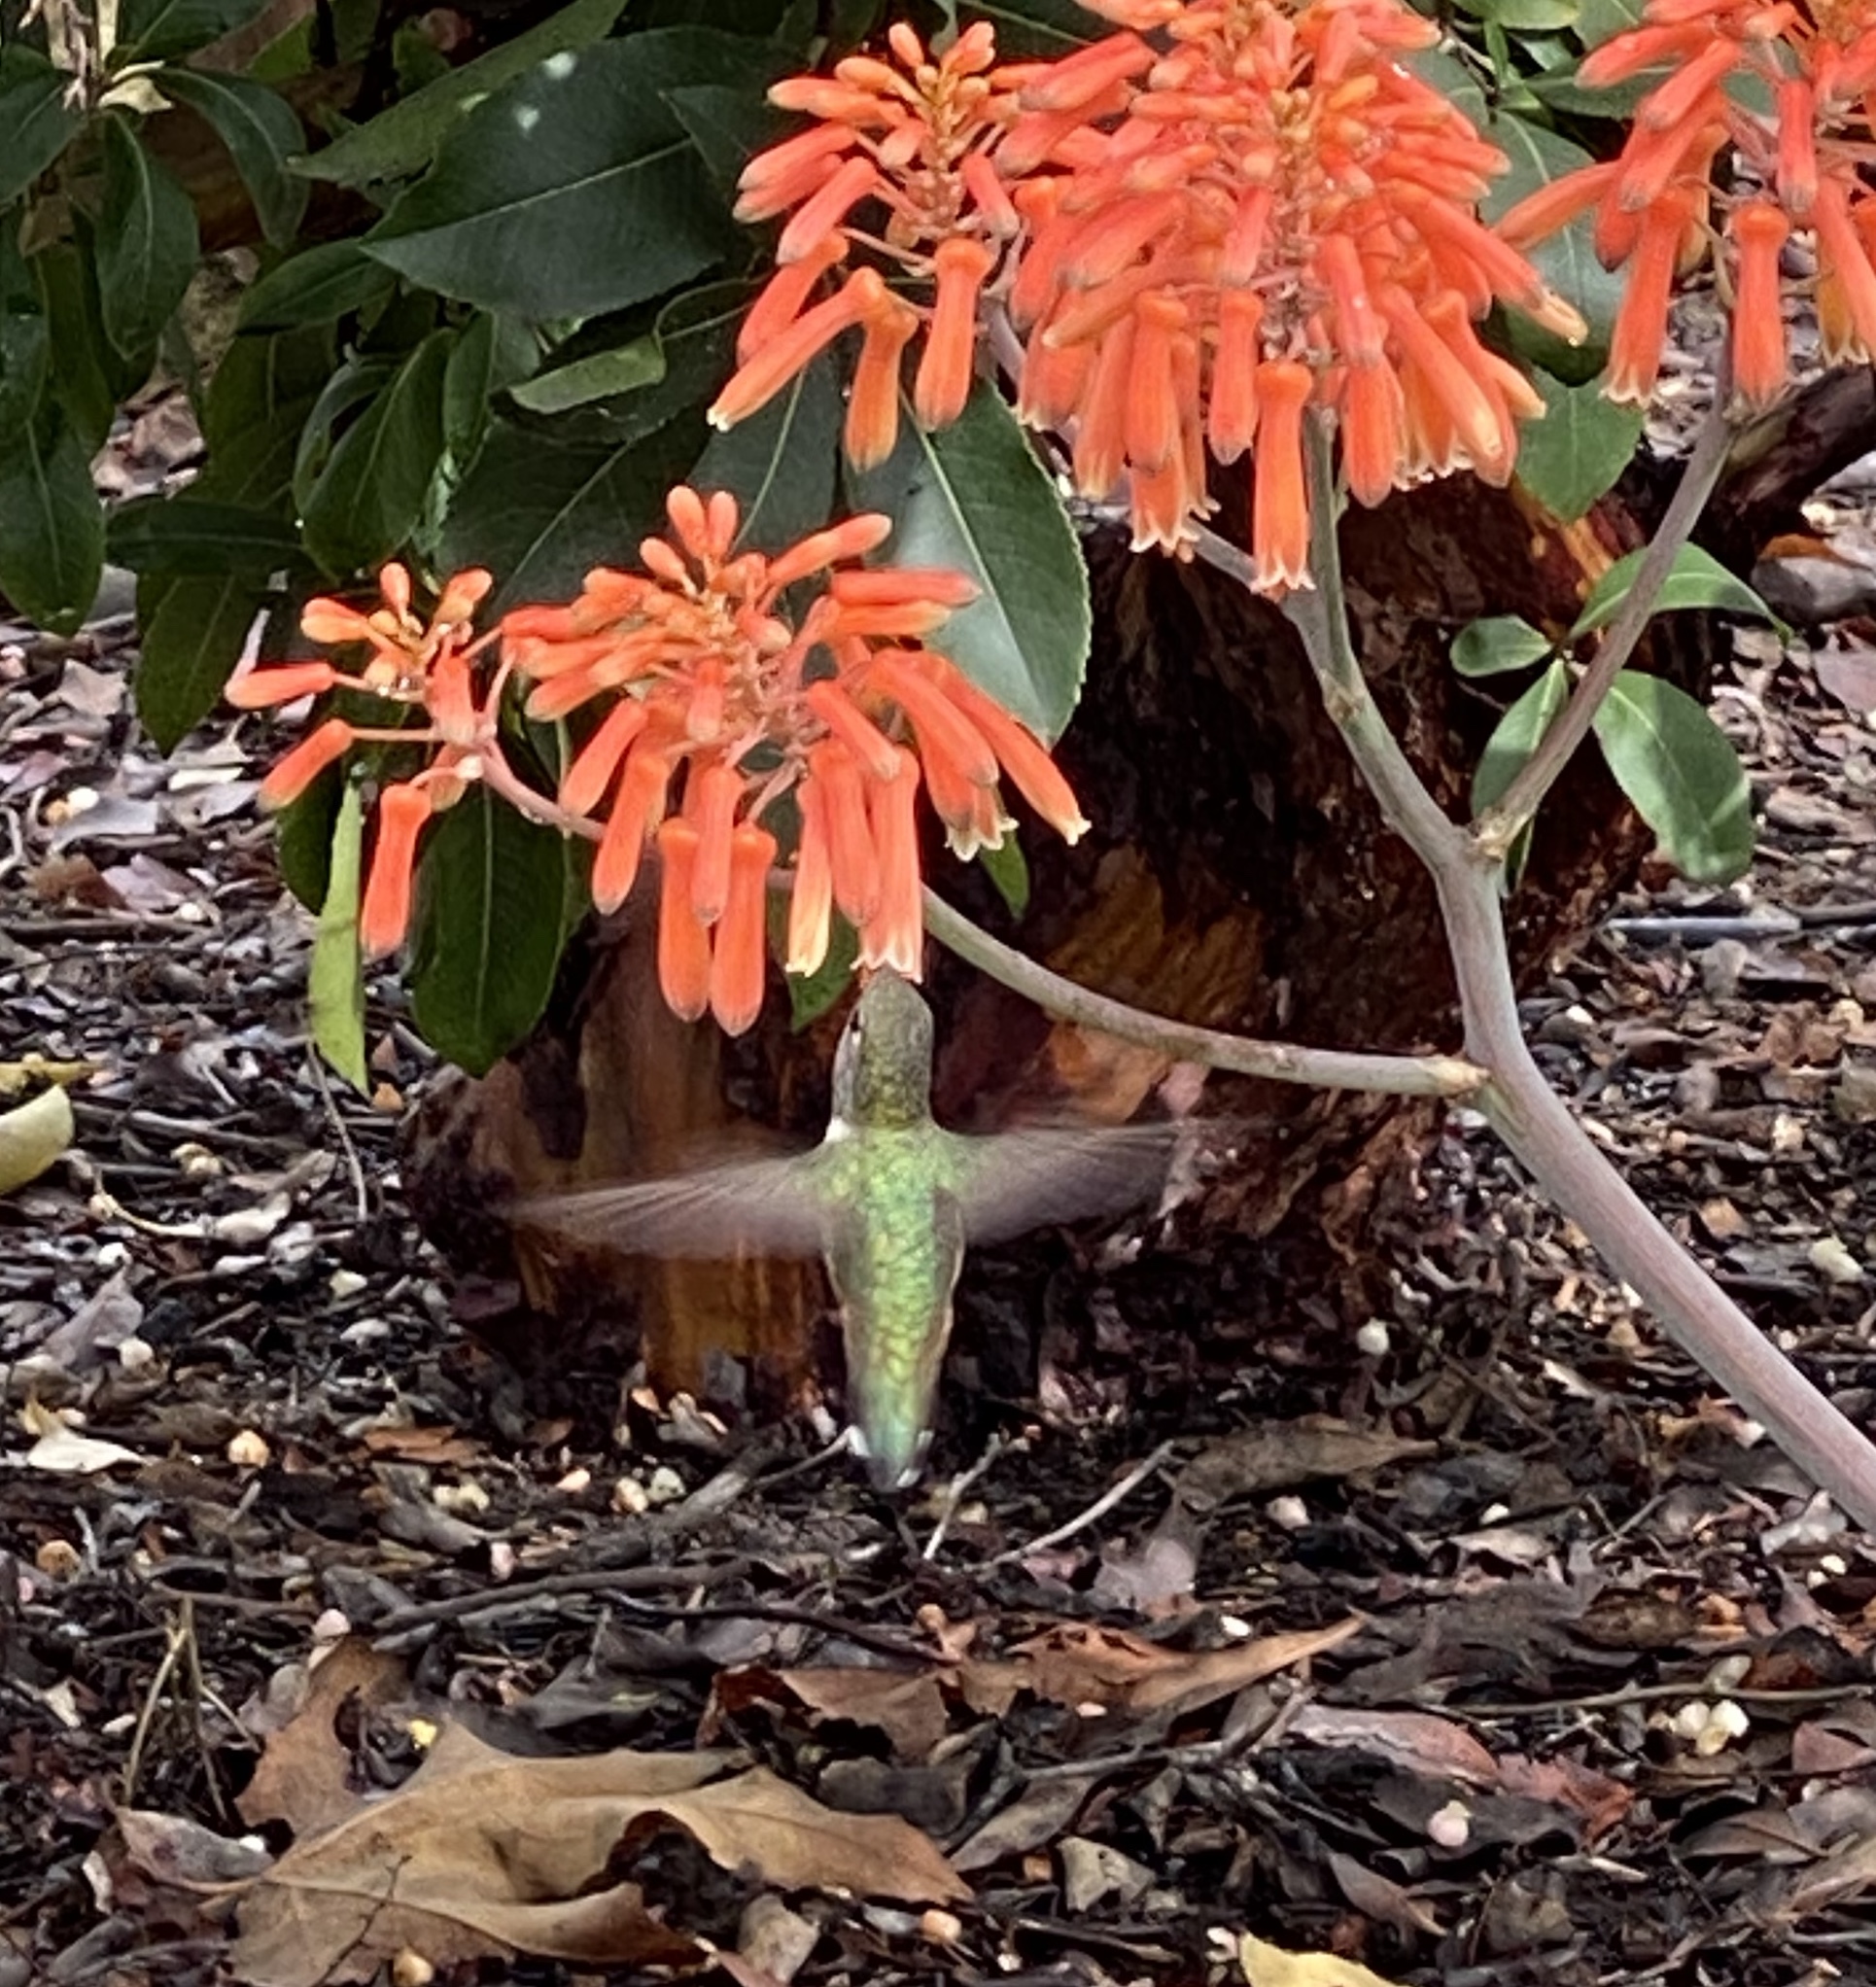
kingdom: Animalia
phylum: Chordata
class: Aves
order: Apodiformes
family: Trochilidae
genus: Calypte
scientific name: Calypte anna
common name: Anna's hummingbird
